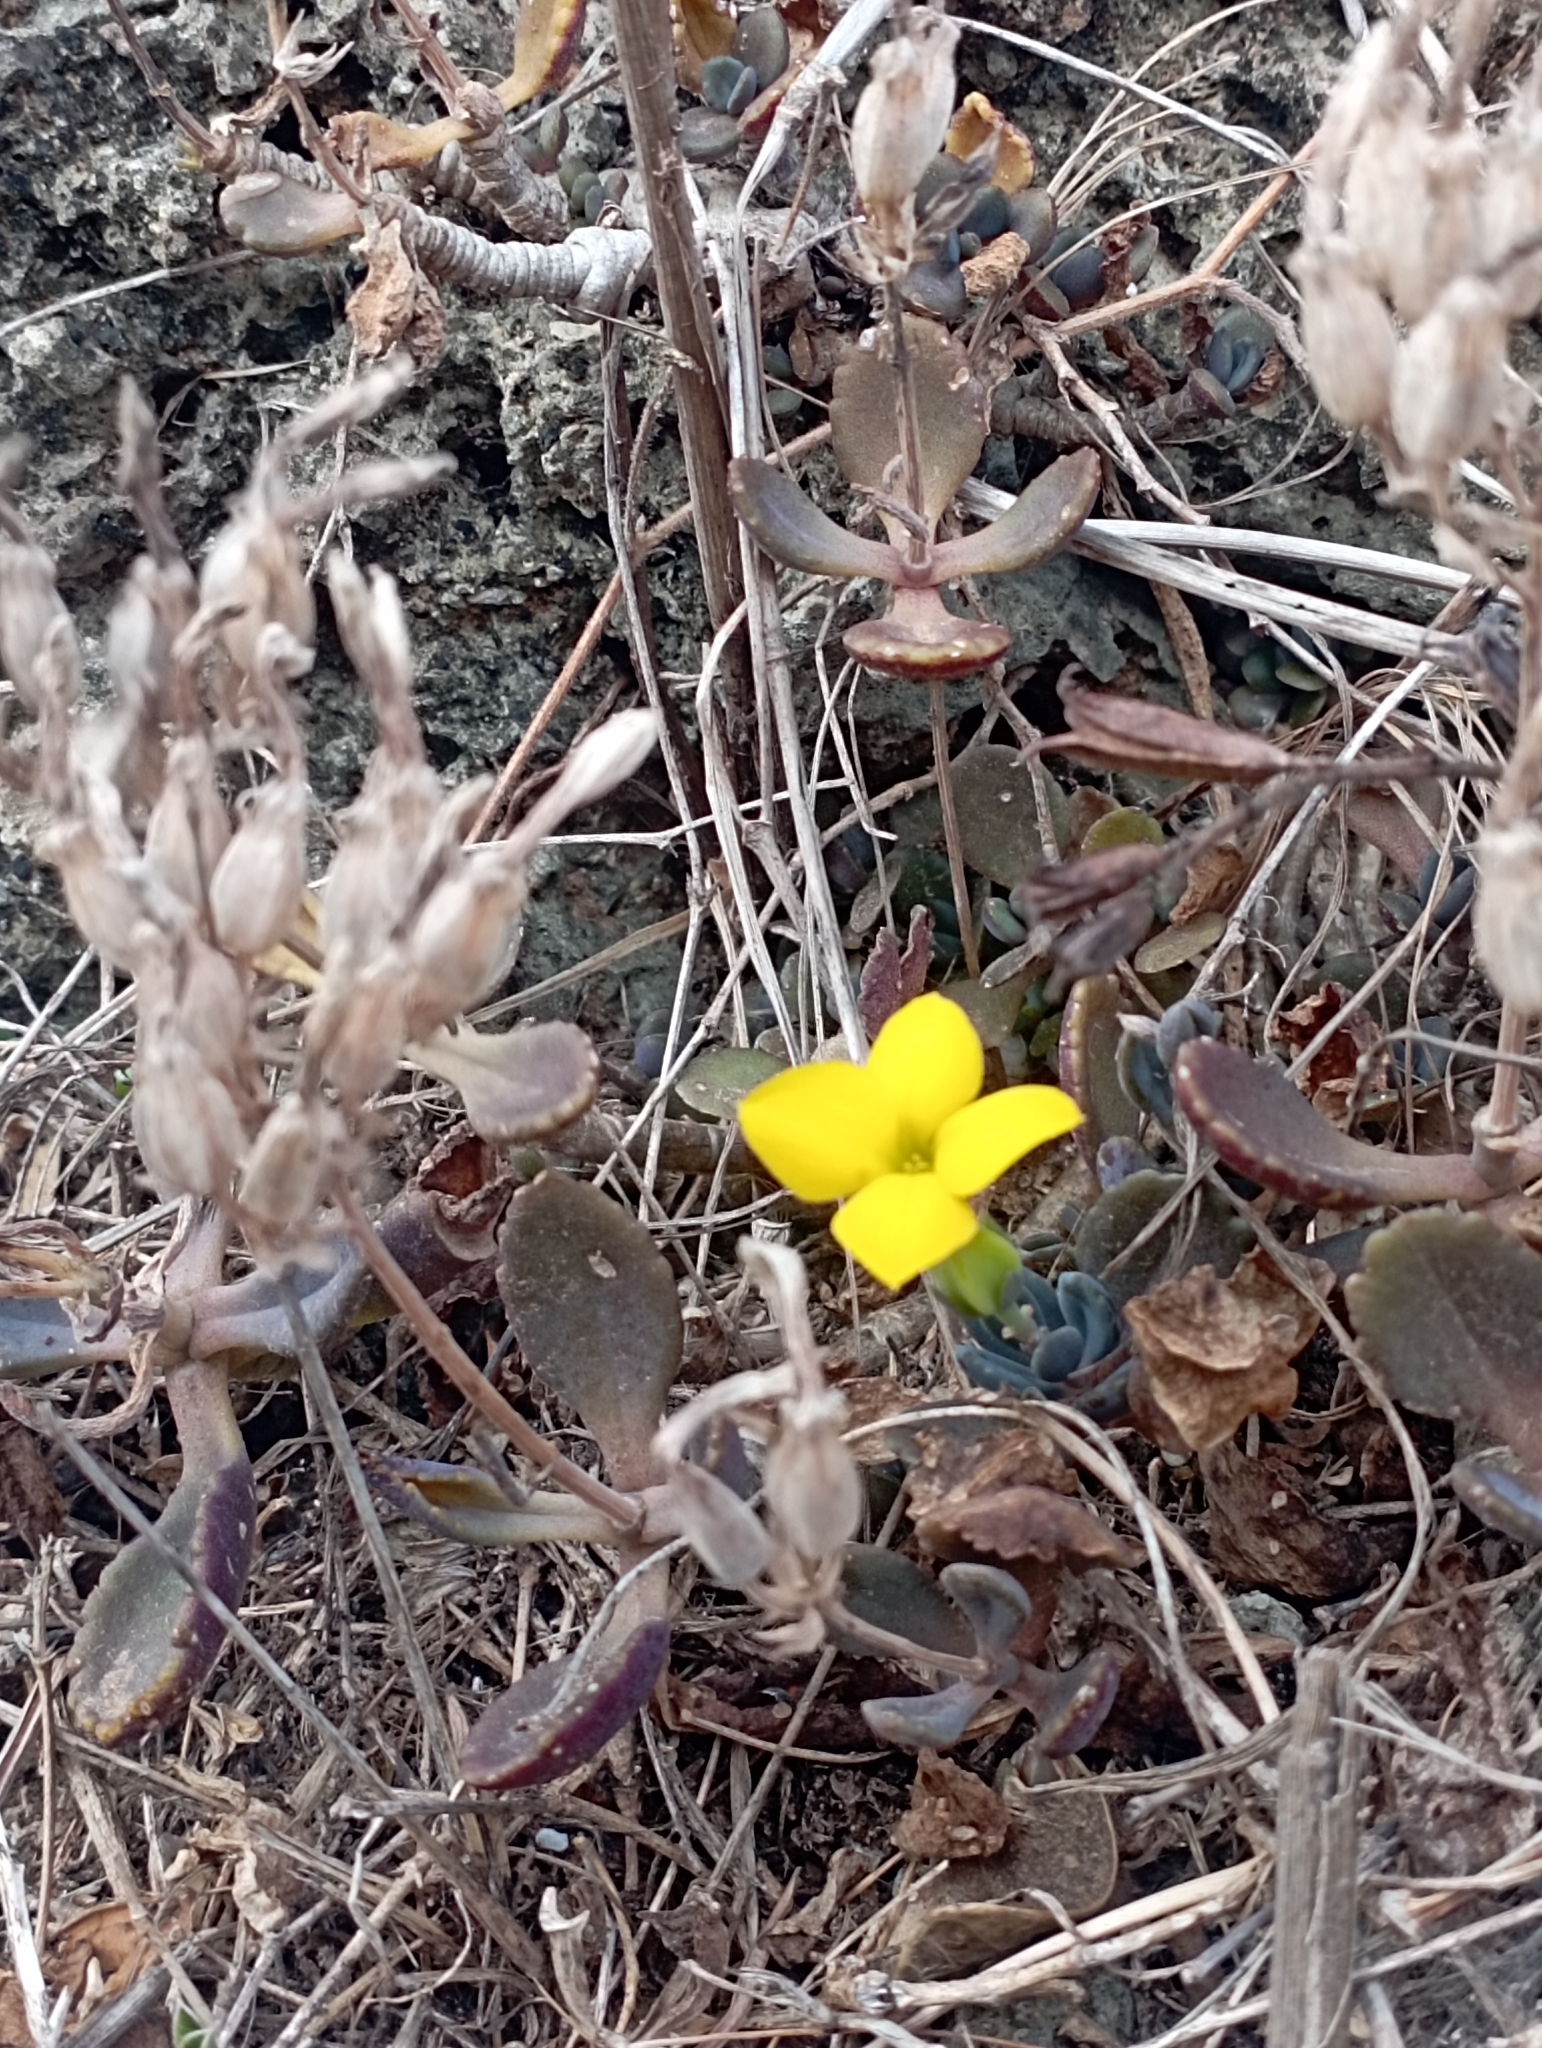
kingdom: Plantae
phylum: Tracheophyta
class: Magnoliopsida
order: Saxifragales
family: Crassulaceae
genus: Kalanchoe
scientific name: Kalanchoe integra
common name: Neverdie
